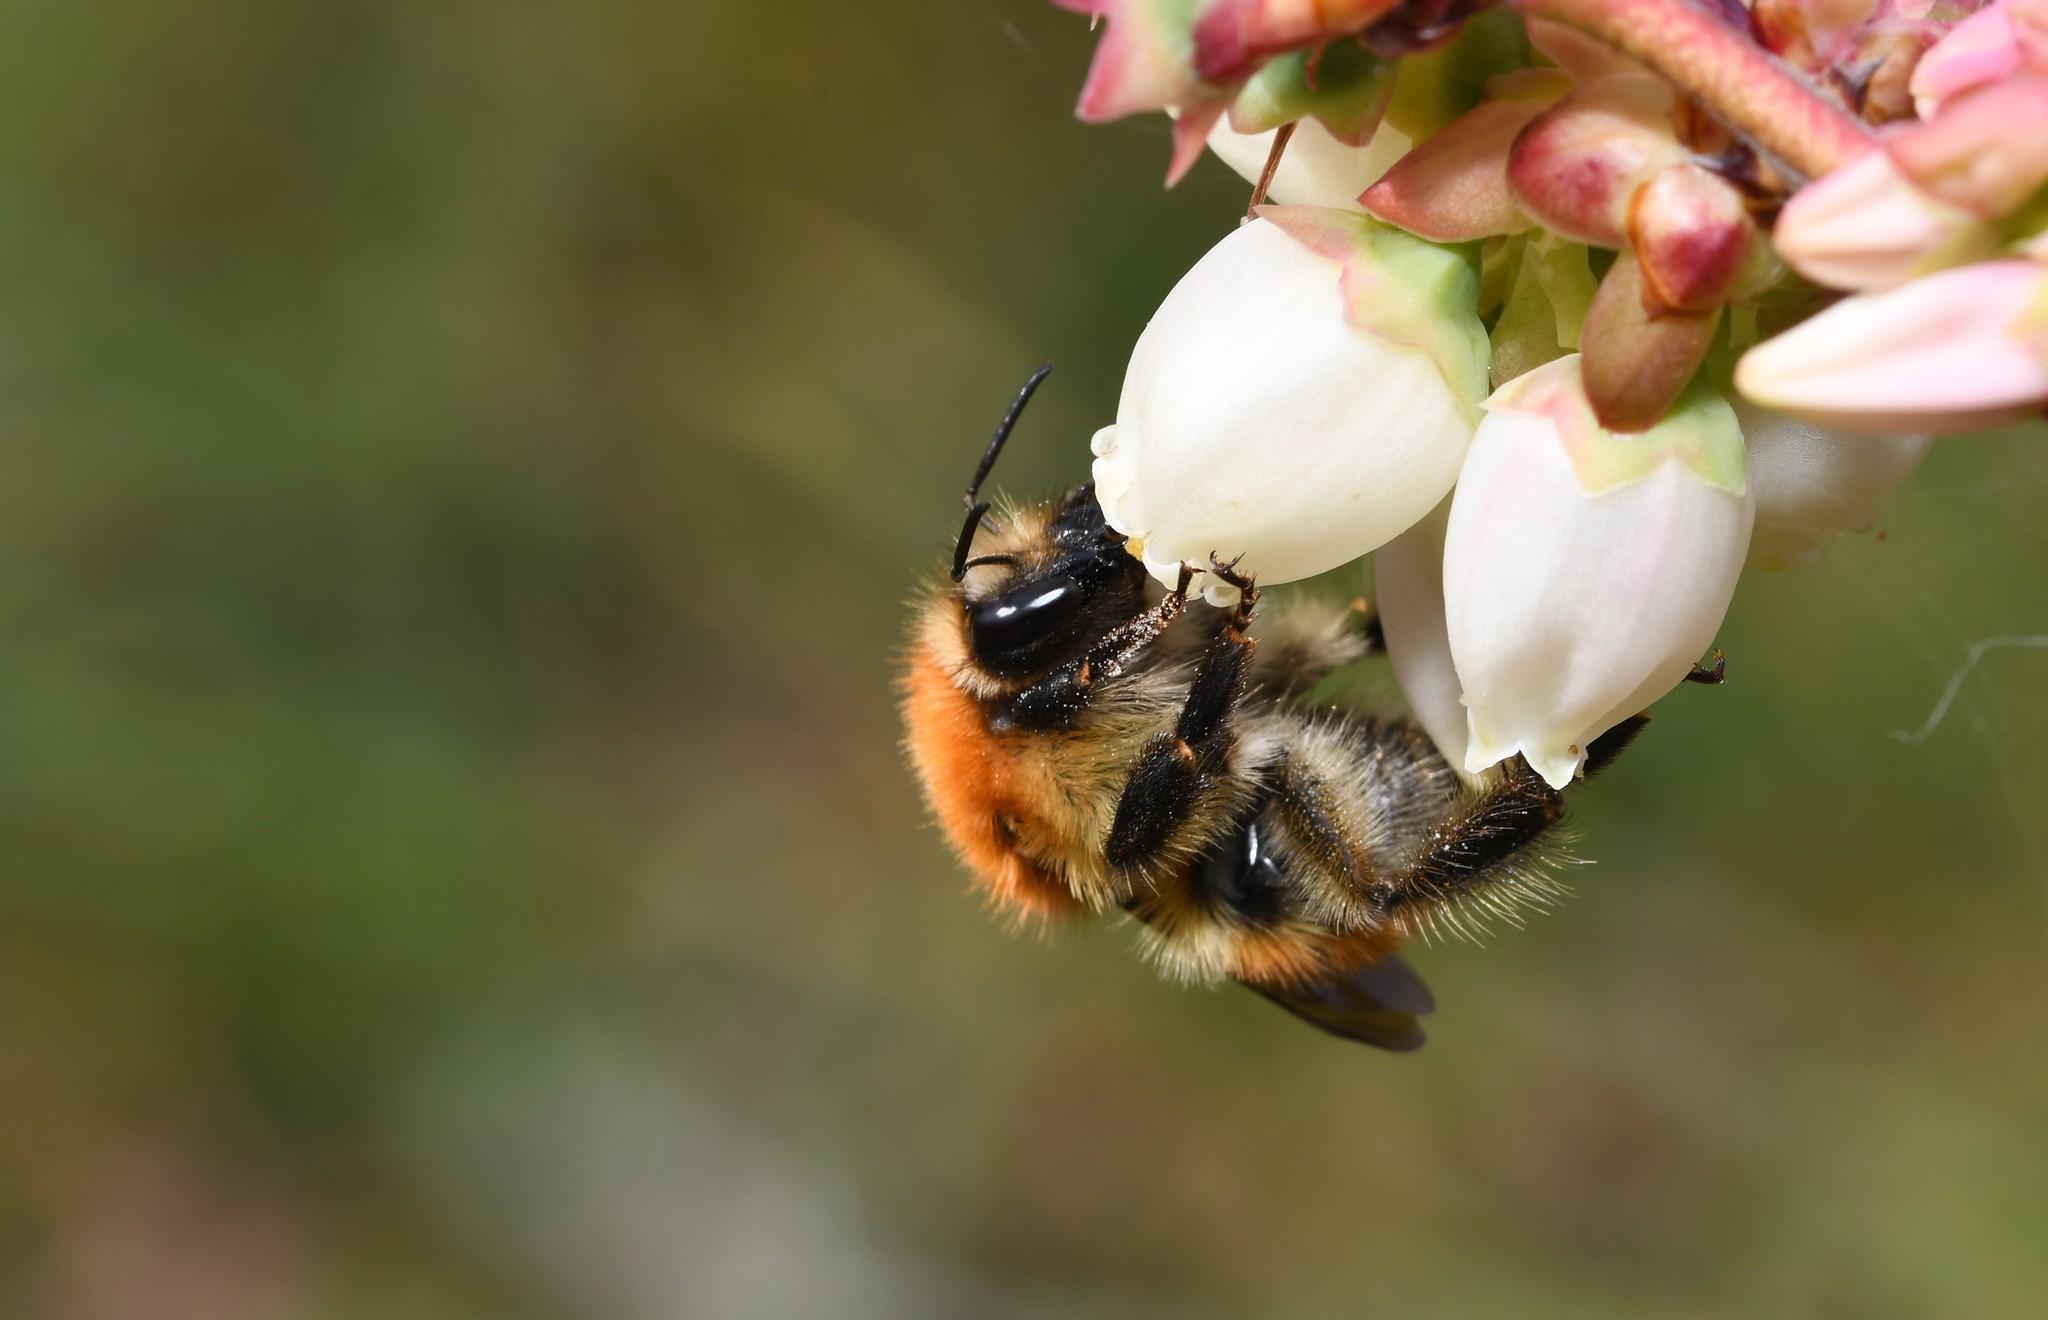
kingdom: Animalia
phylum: Arthropoda
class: Insecta
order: Hymenoptera
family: Apidae
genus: Bombus
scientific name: Bombus pascuorum
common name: Common carder bee
